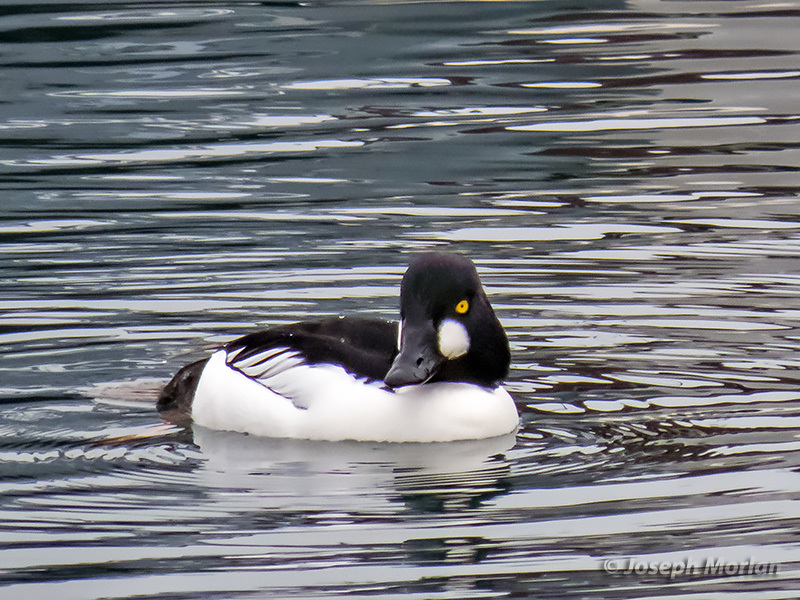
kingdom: Animalia
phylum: Chordata
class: Aves
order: Anseriformes
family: Anatidae
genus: Bucephala
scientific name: Bucephala clangula
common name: Common goldeneye
